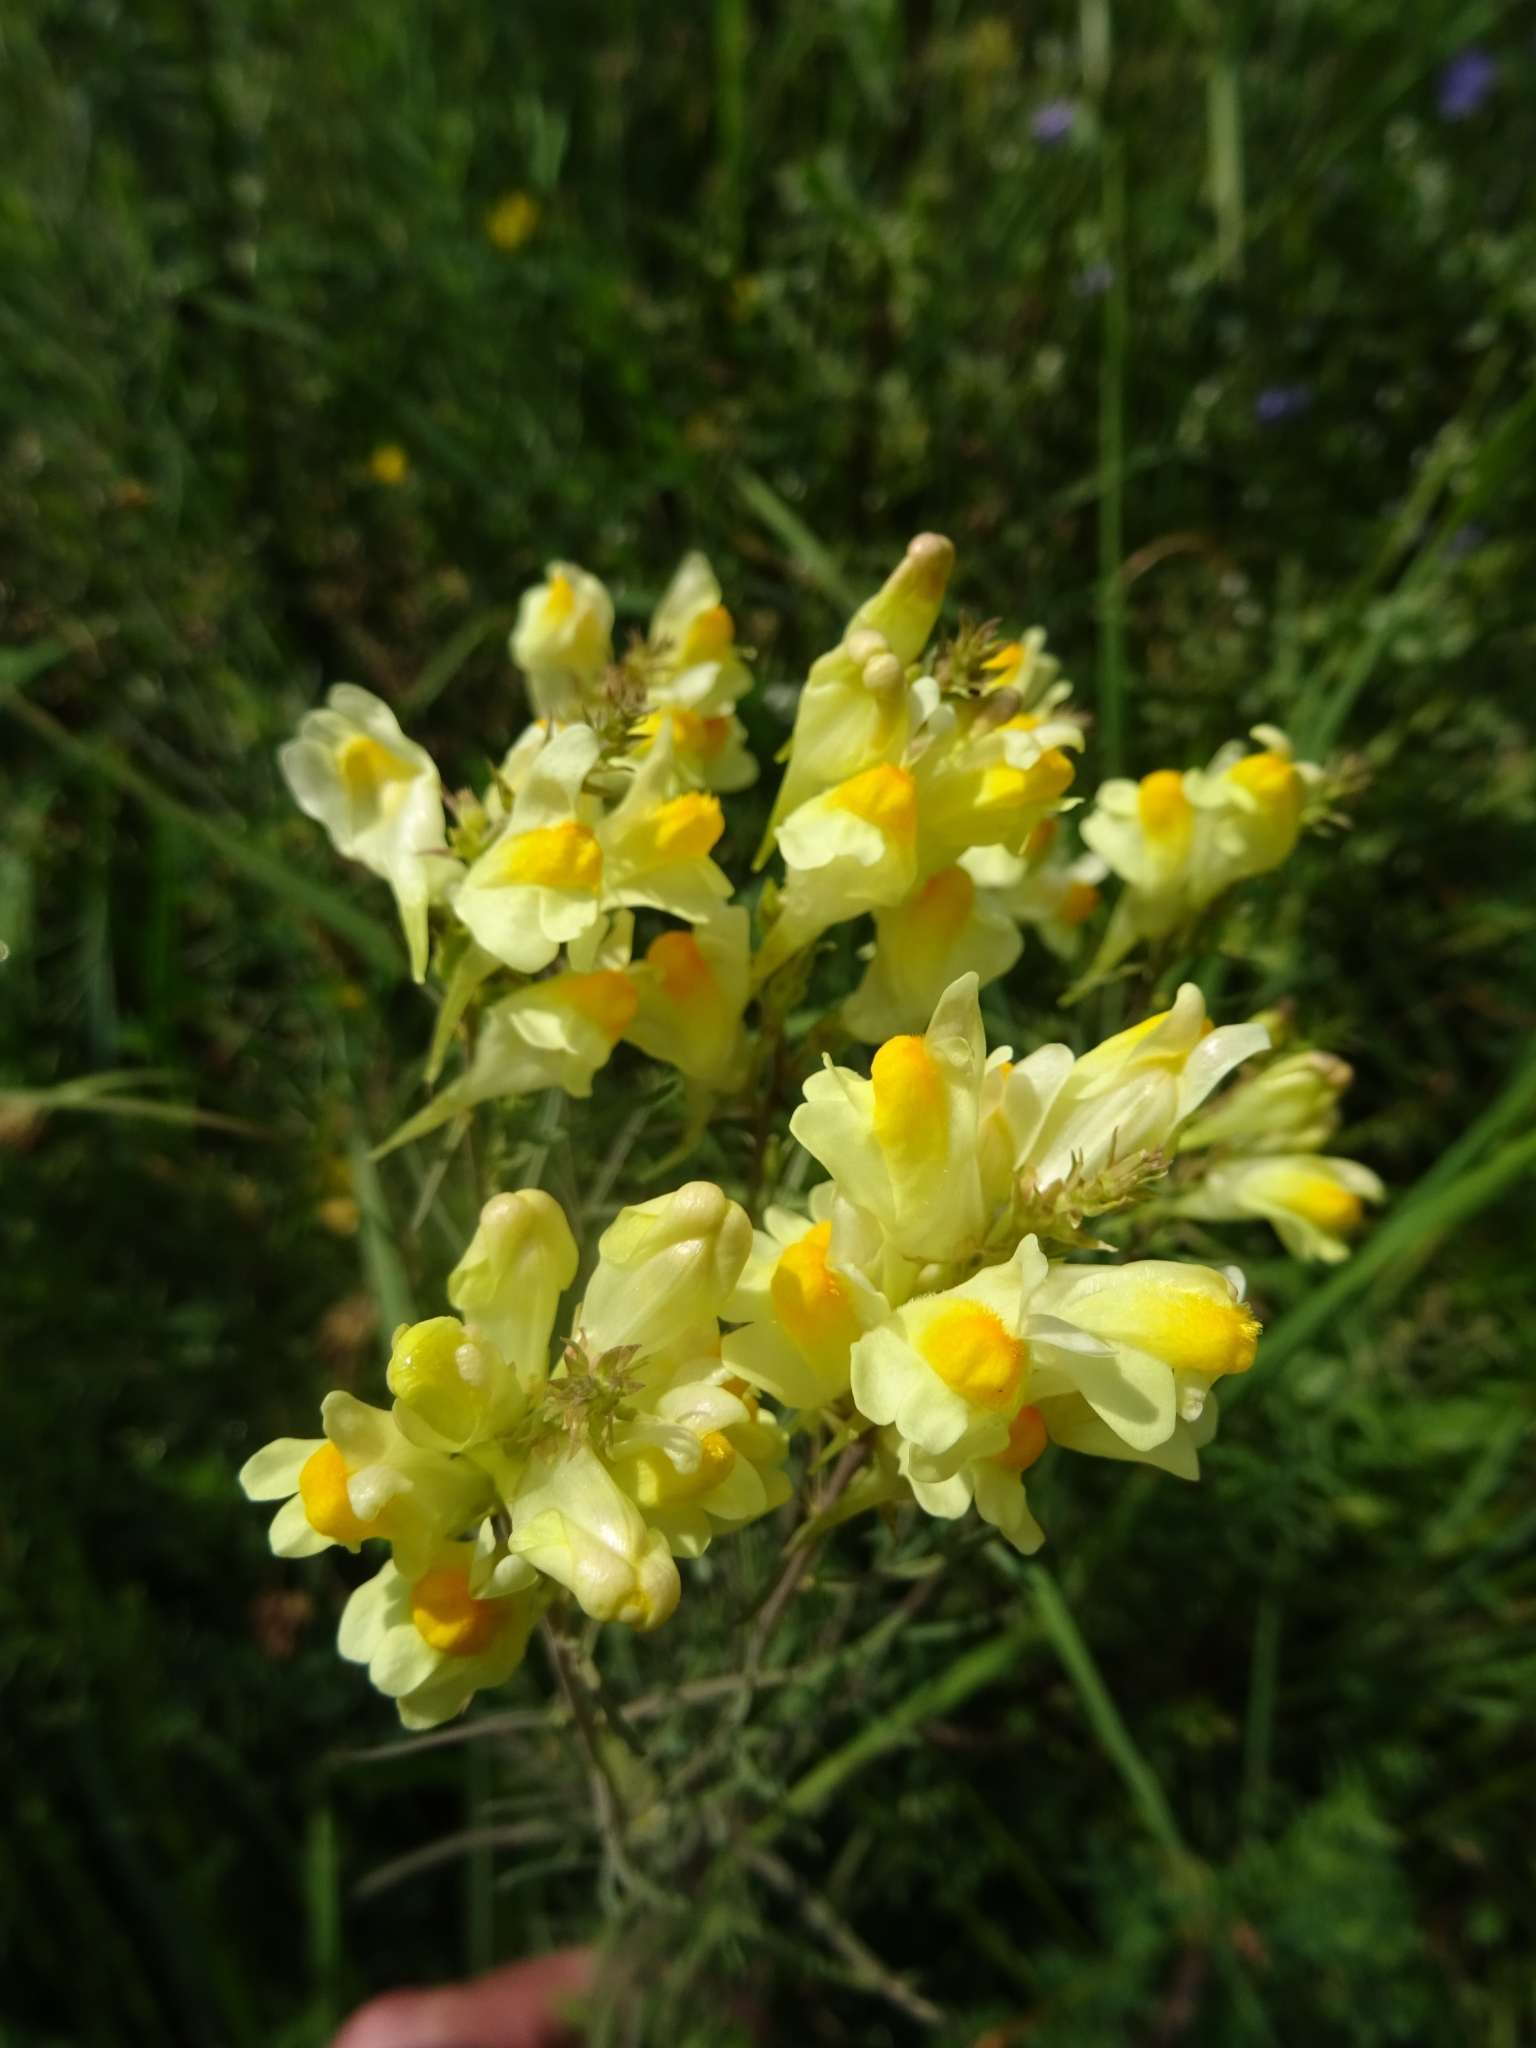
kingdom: Plantae
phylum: Tracheophyta
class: Magnoliopsida
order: Lamiales
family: Plantaginaceae
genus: Linaria
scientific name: Linaria vulgaris
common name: Butter and eggs
